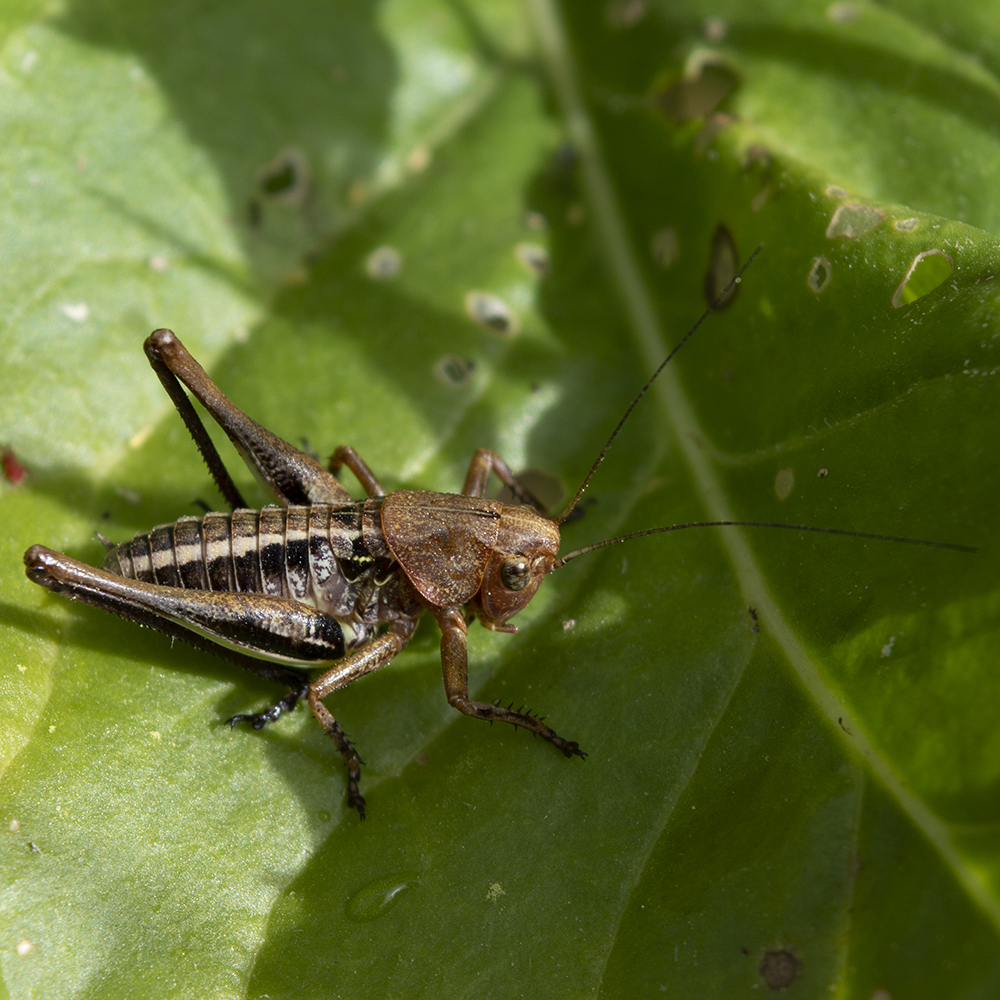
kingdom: Animalia
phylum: Arthropoda
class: Insecta
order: Orthoptera
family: Tettigoniidae
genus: Decticus
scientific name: Decticus albifrons
